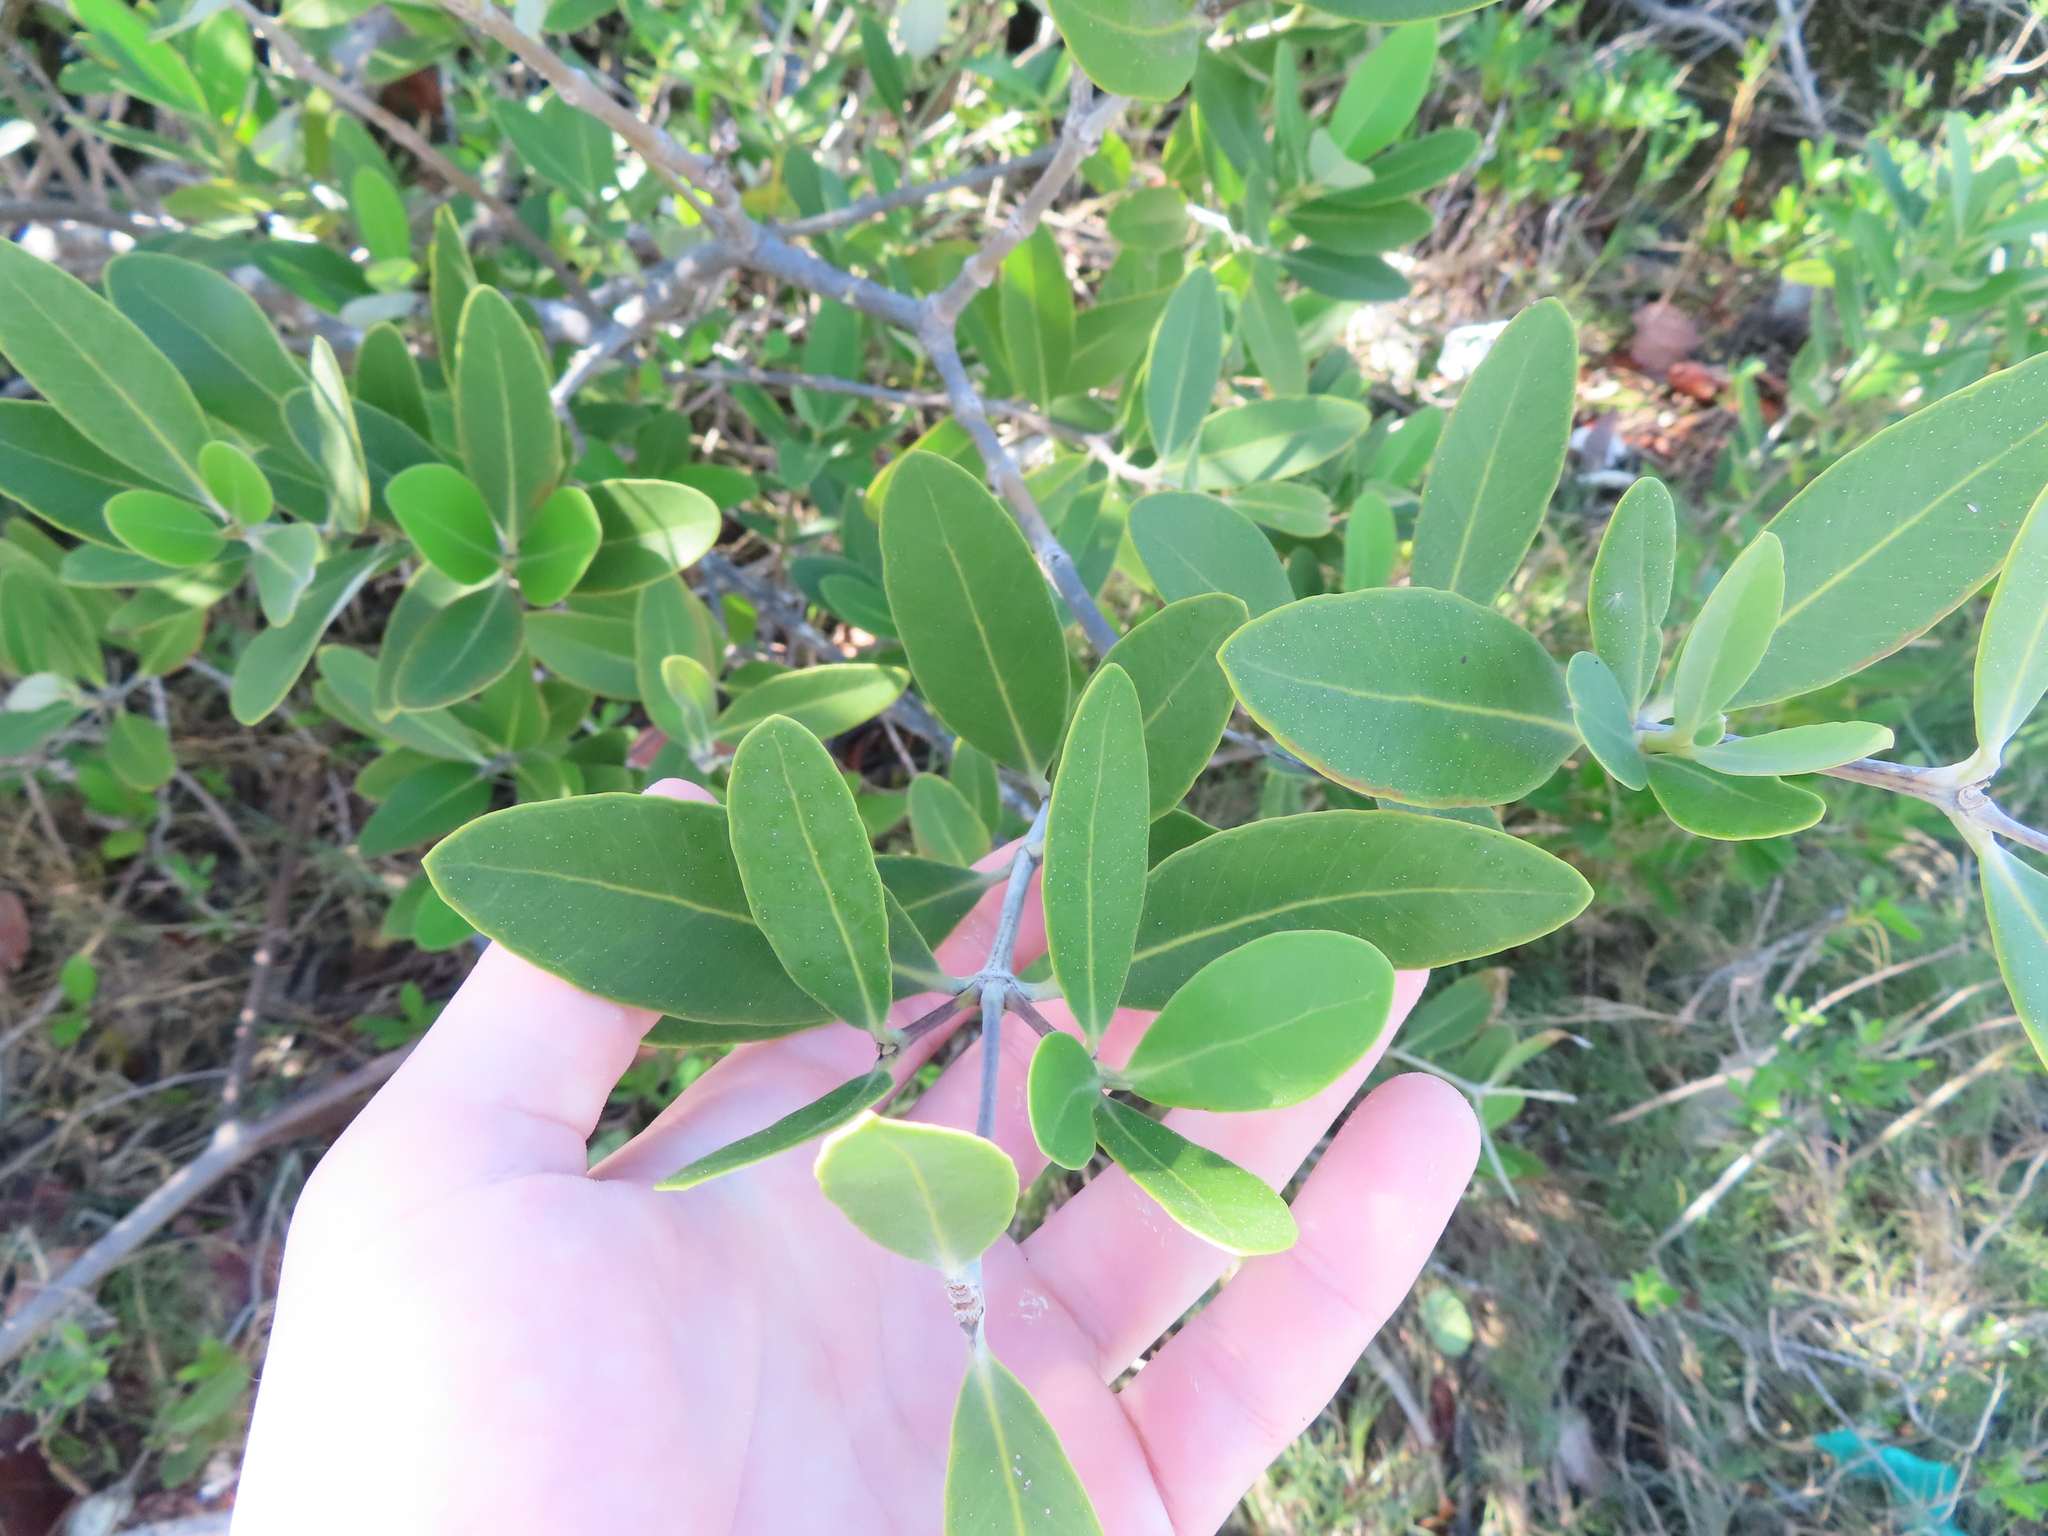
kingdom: Plantae
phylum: Tracheophyta
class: Magnoliopsida
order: Lamiales
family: Acanthaceae
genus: Avicennia
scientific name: Avicennia germinans
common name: Black mangrove
